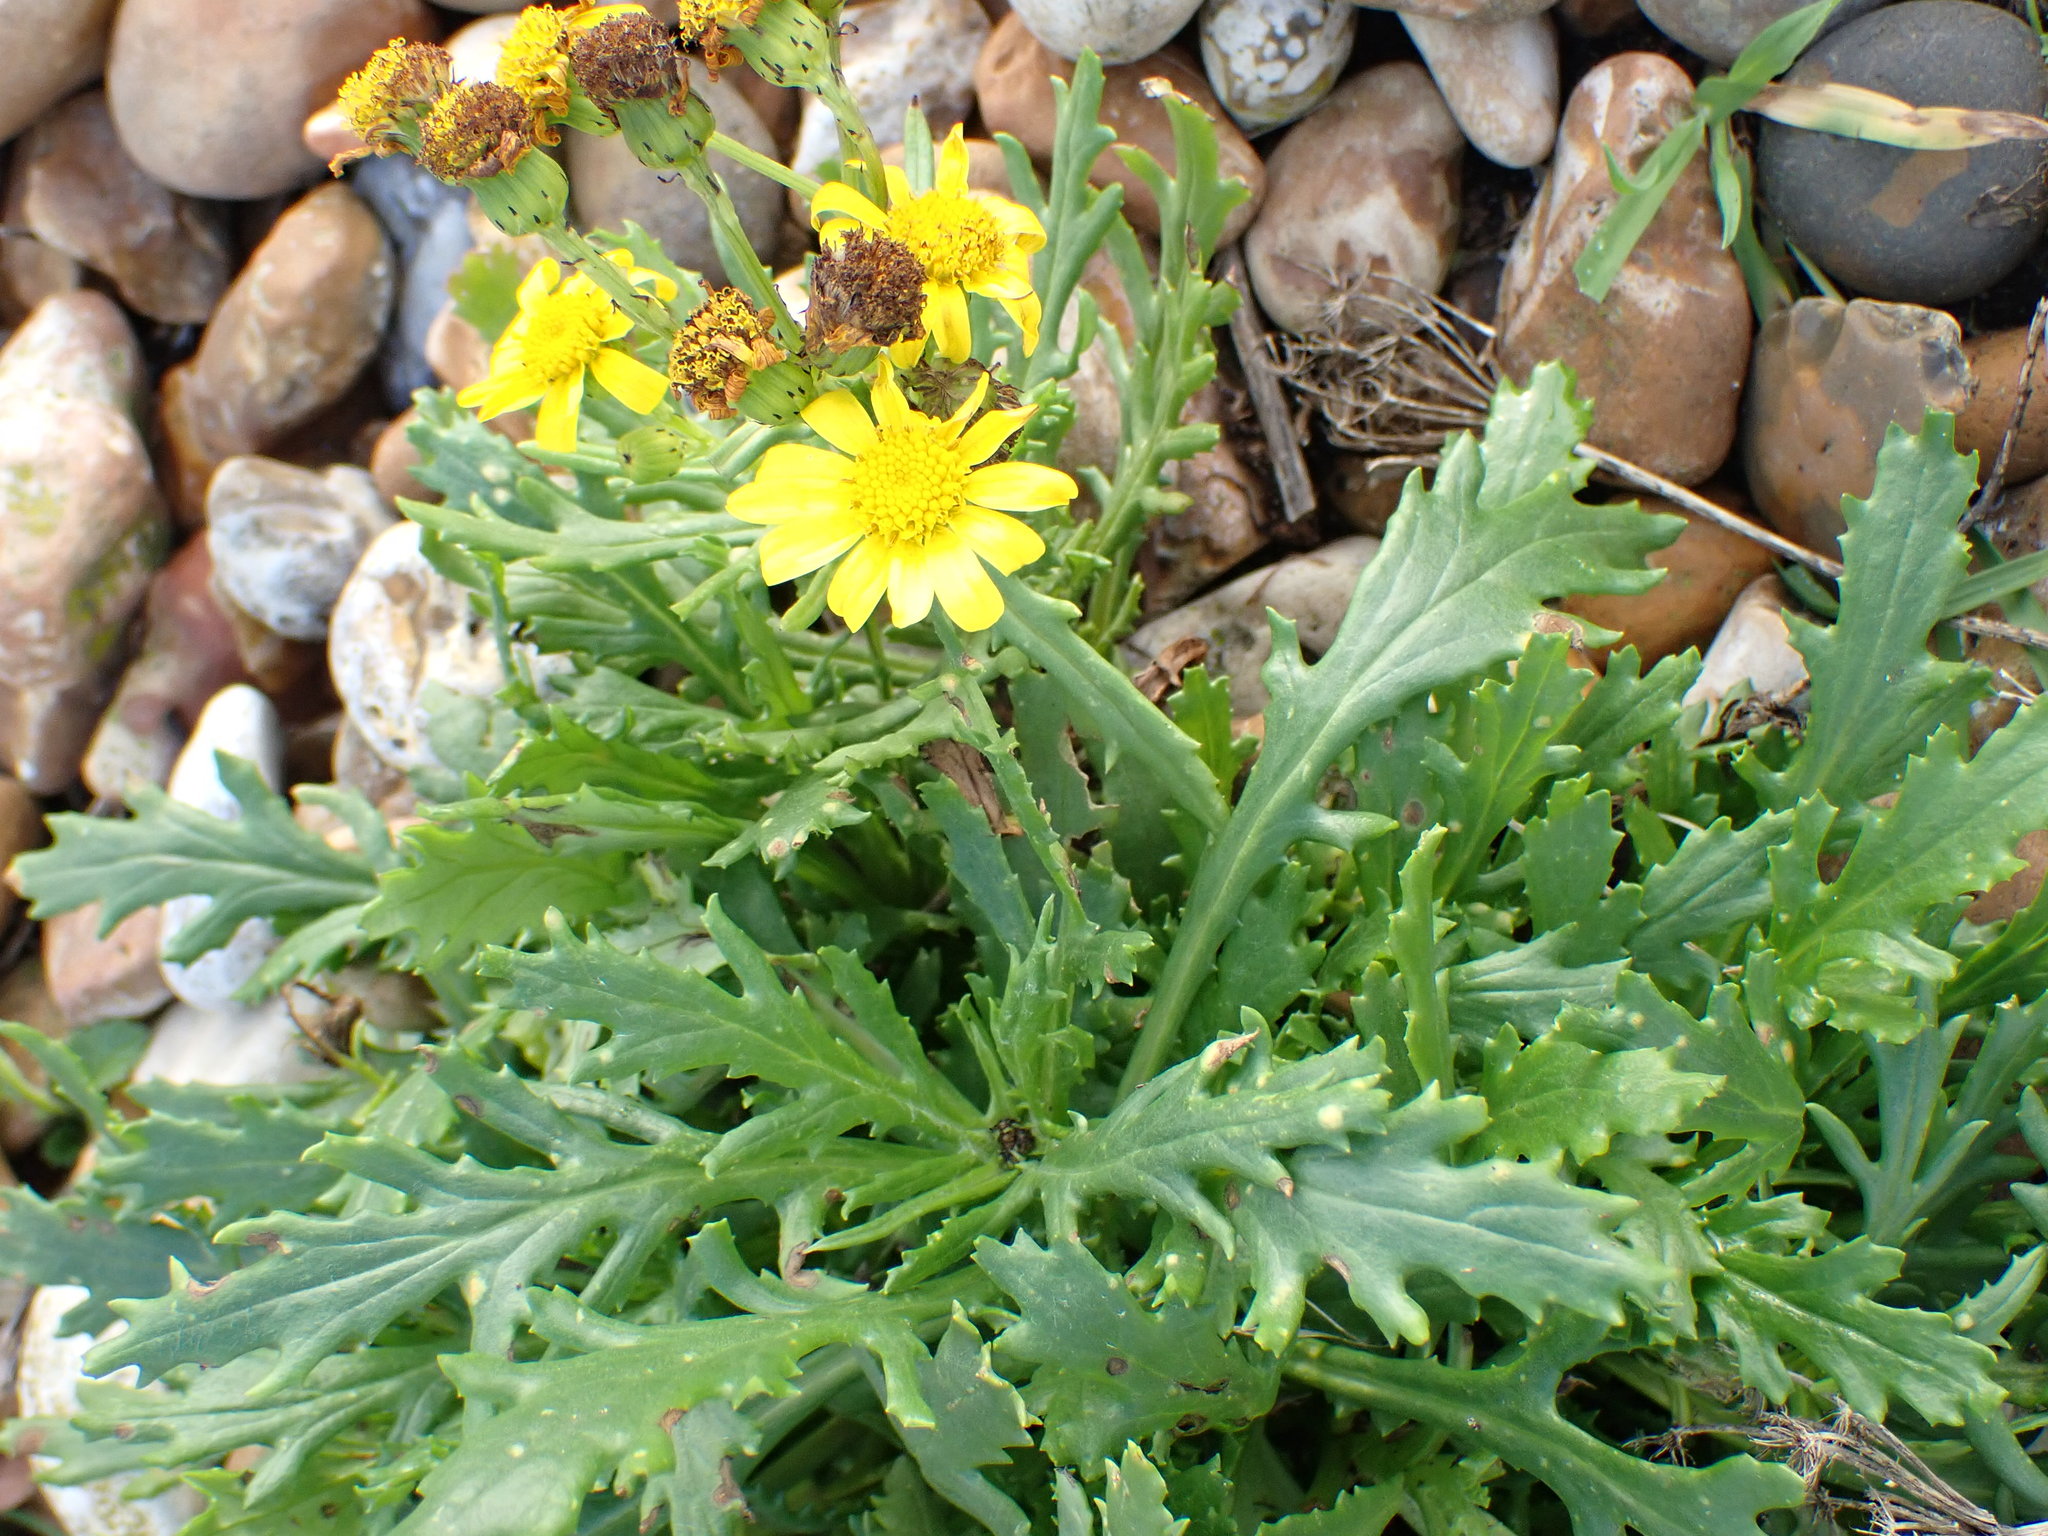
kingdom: Plantae
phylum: Tracheophyta
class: Magnoliopsida
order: Asterales
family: Asteraceae
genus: Senecio
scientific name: Senecio squalidus
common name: Oxford ragwort
